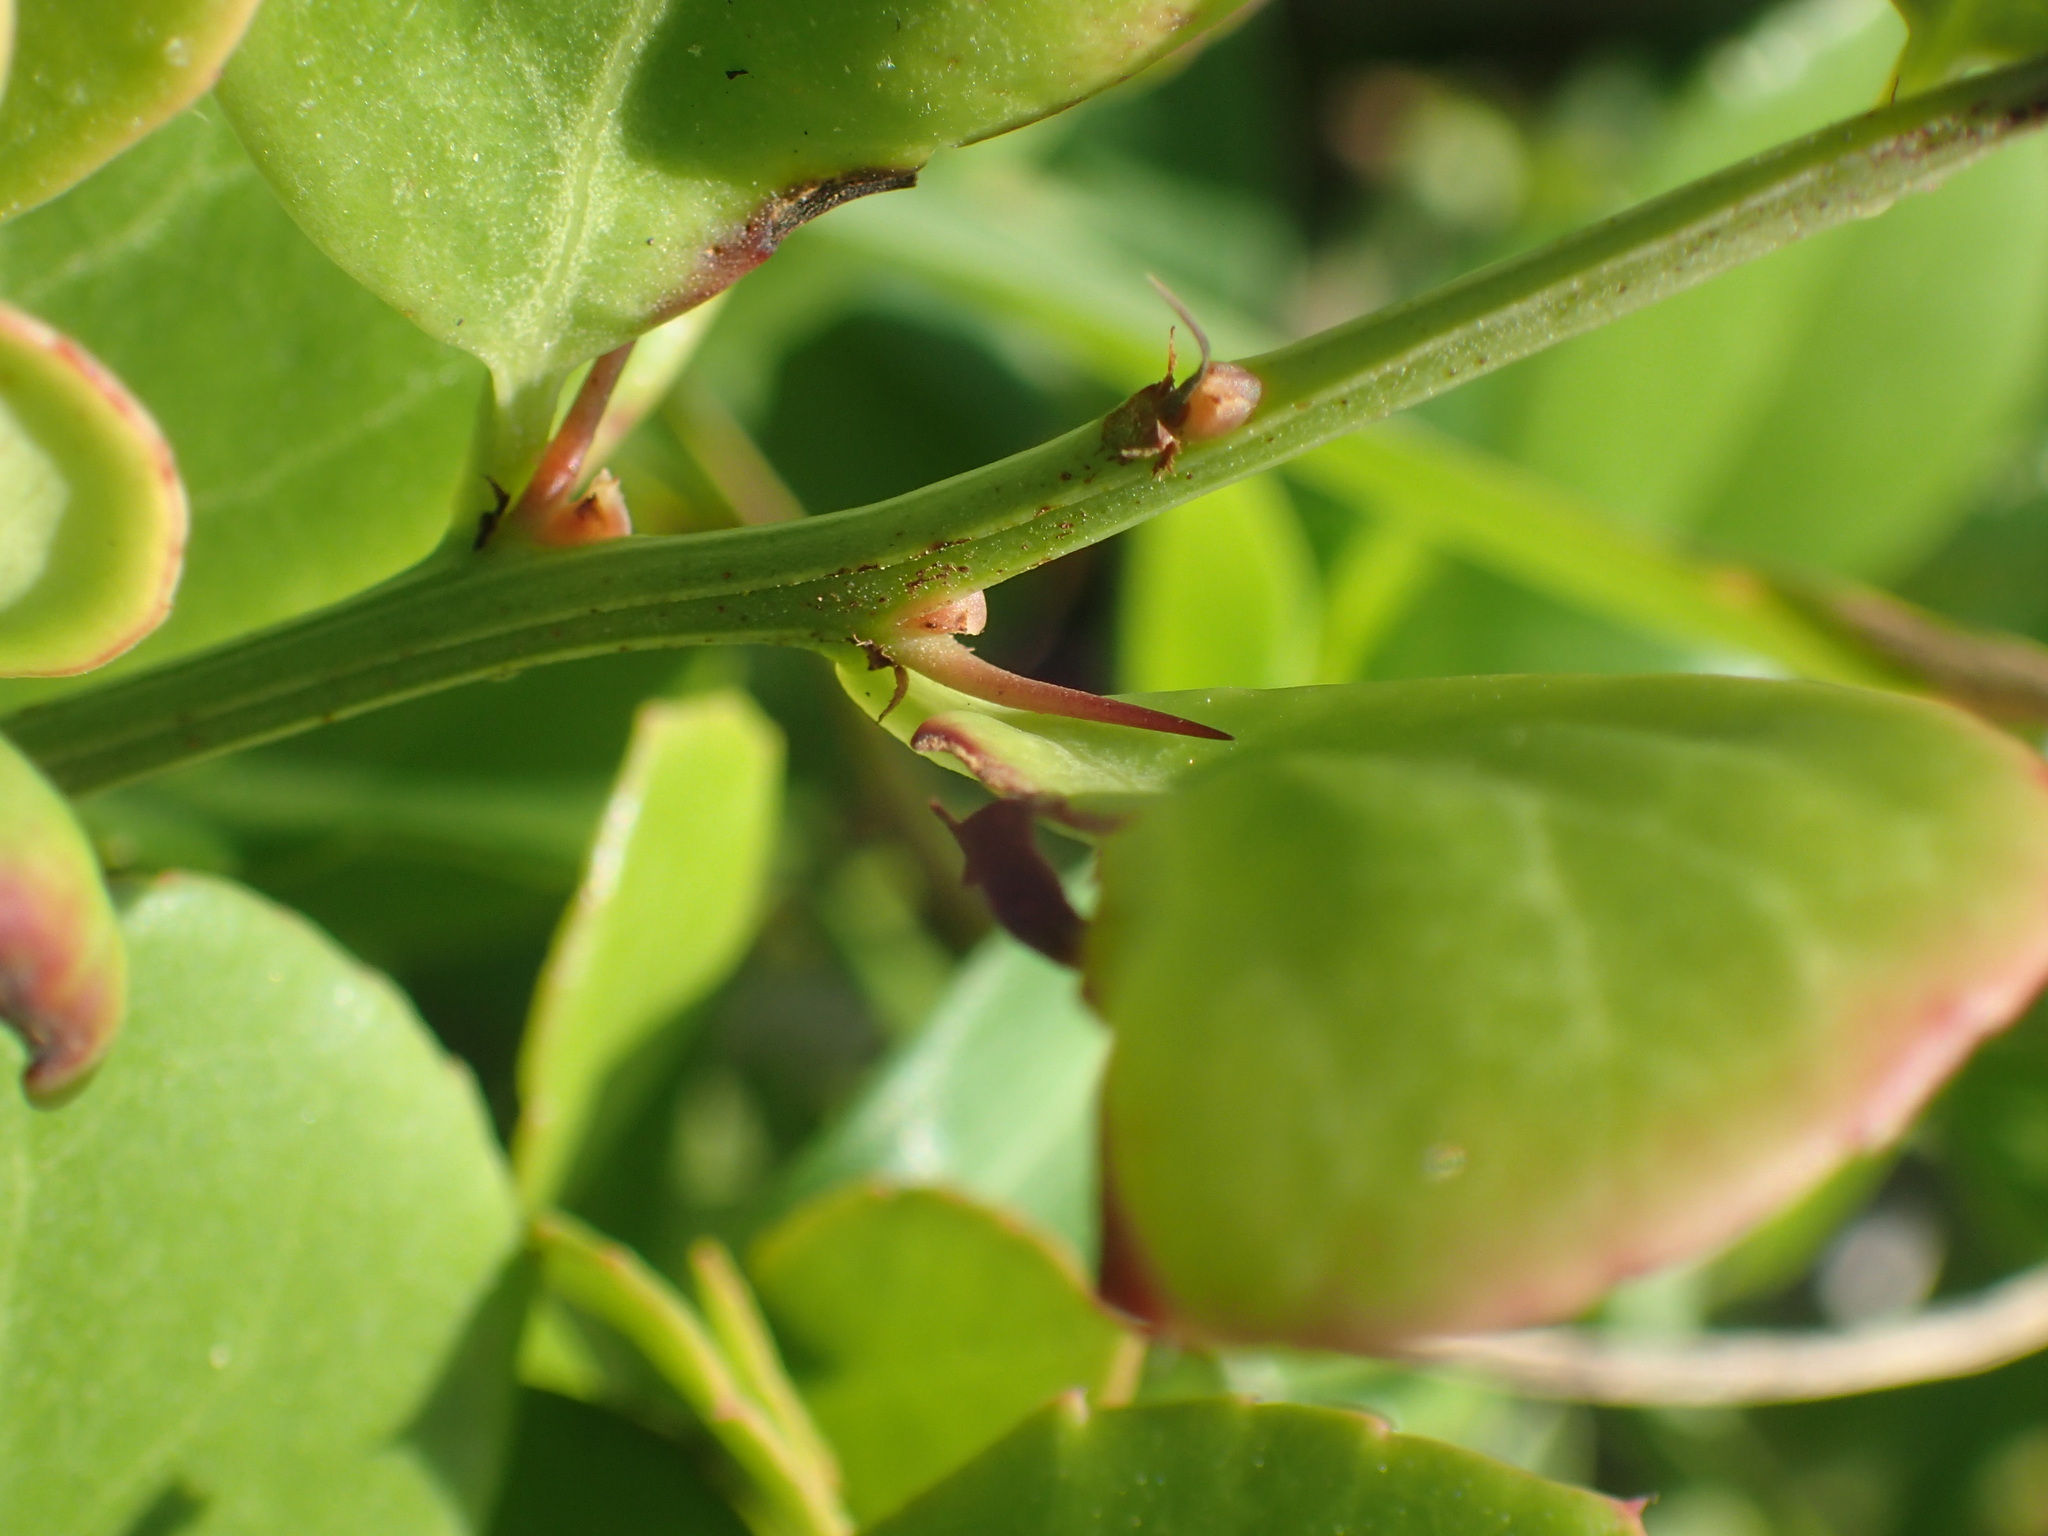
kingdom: Plantae
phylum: Tracheophyta
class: Magnoliopsida
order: Celastrales
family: Celastraceae
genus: Gymnosporia
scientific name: Gymnosporia nemorosa
